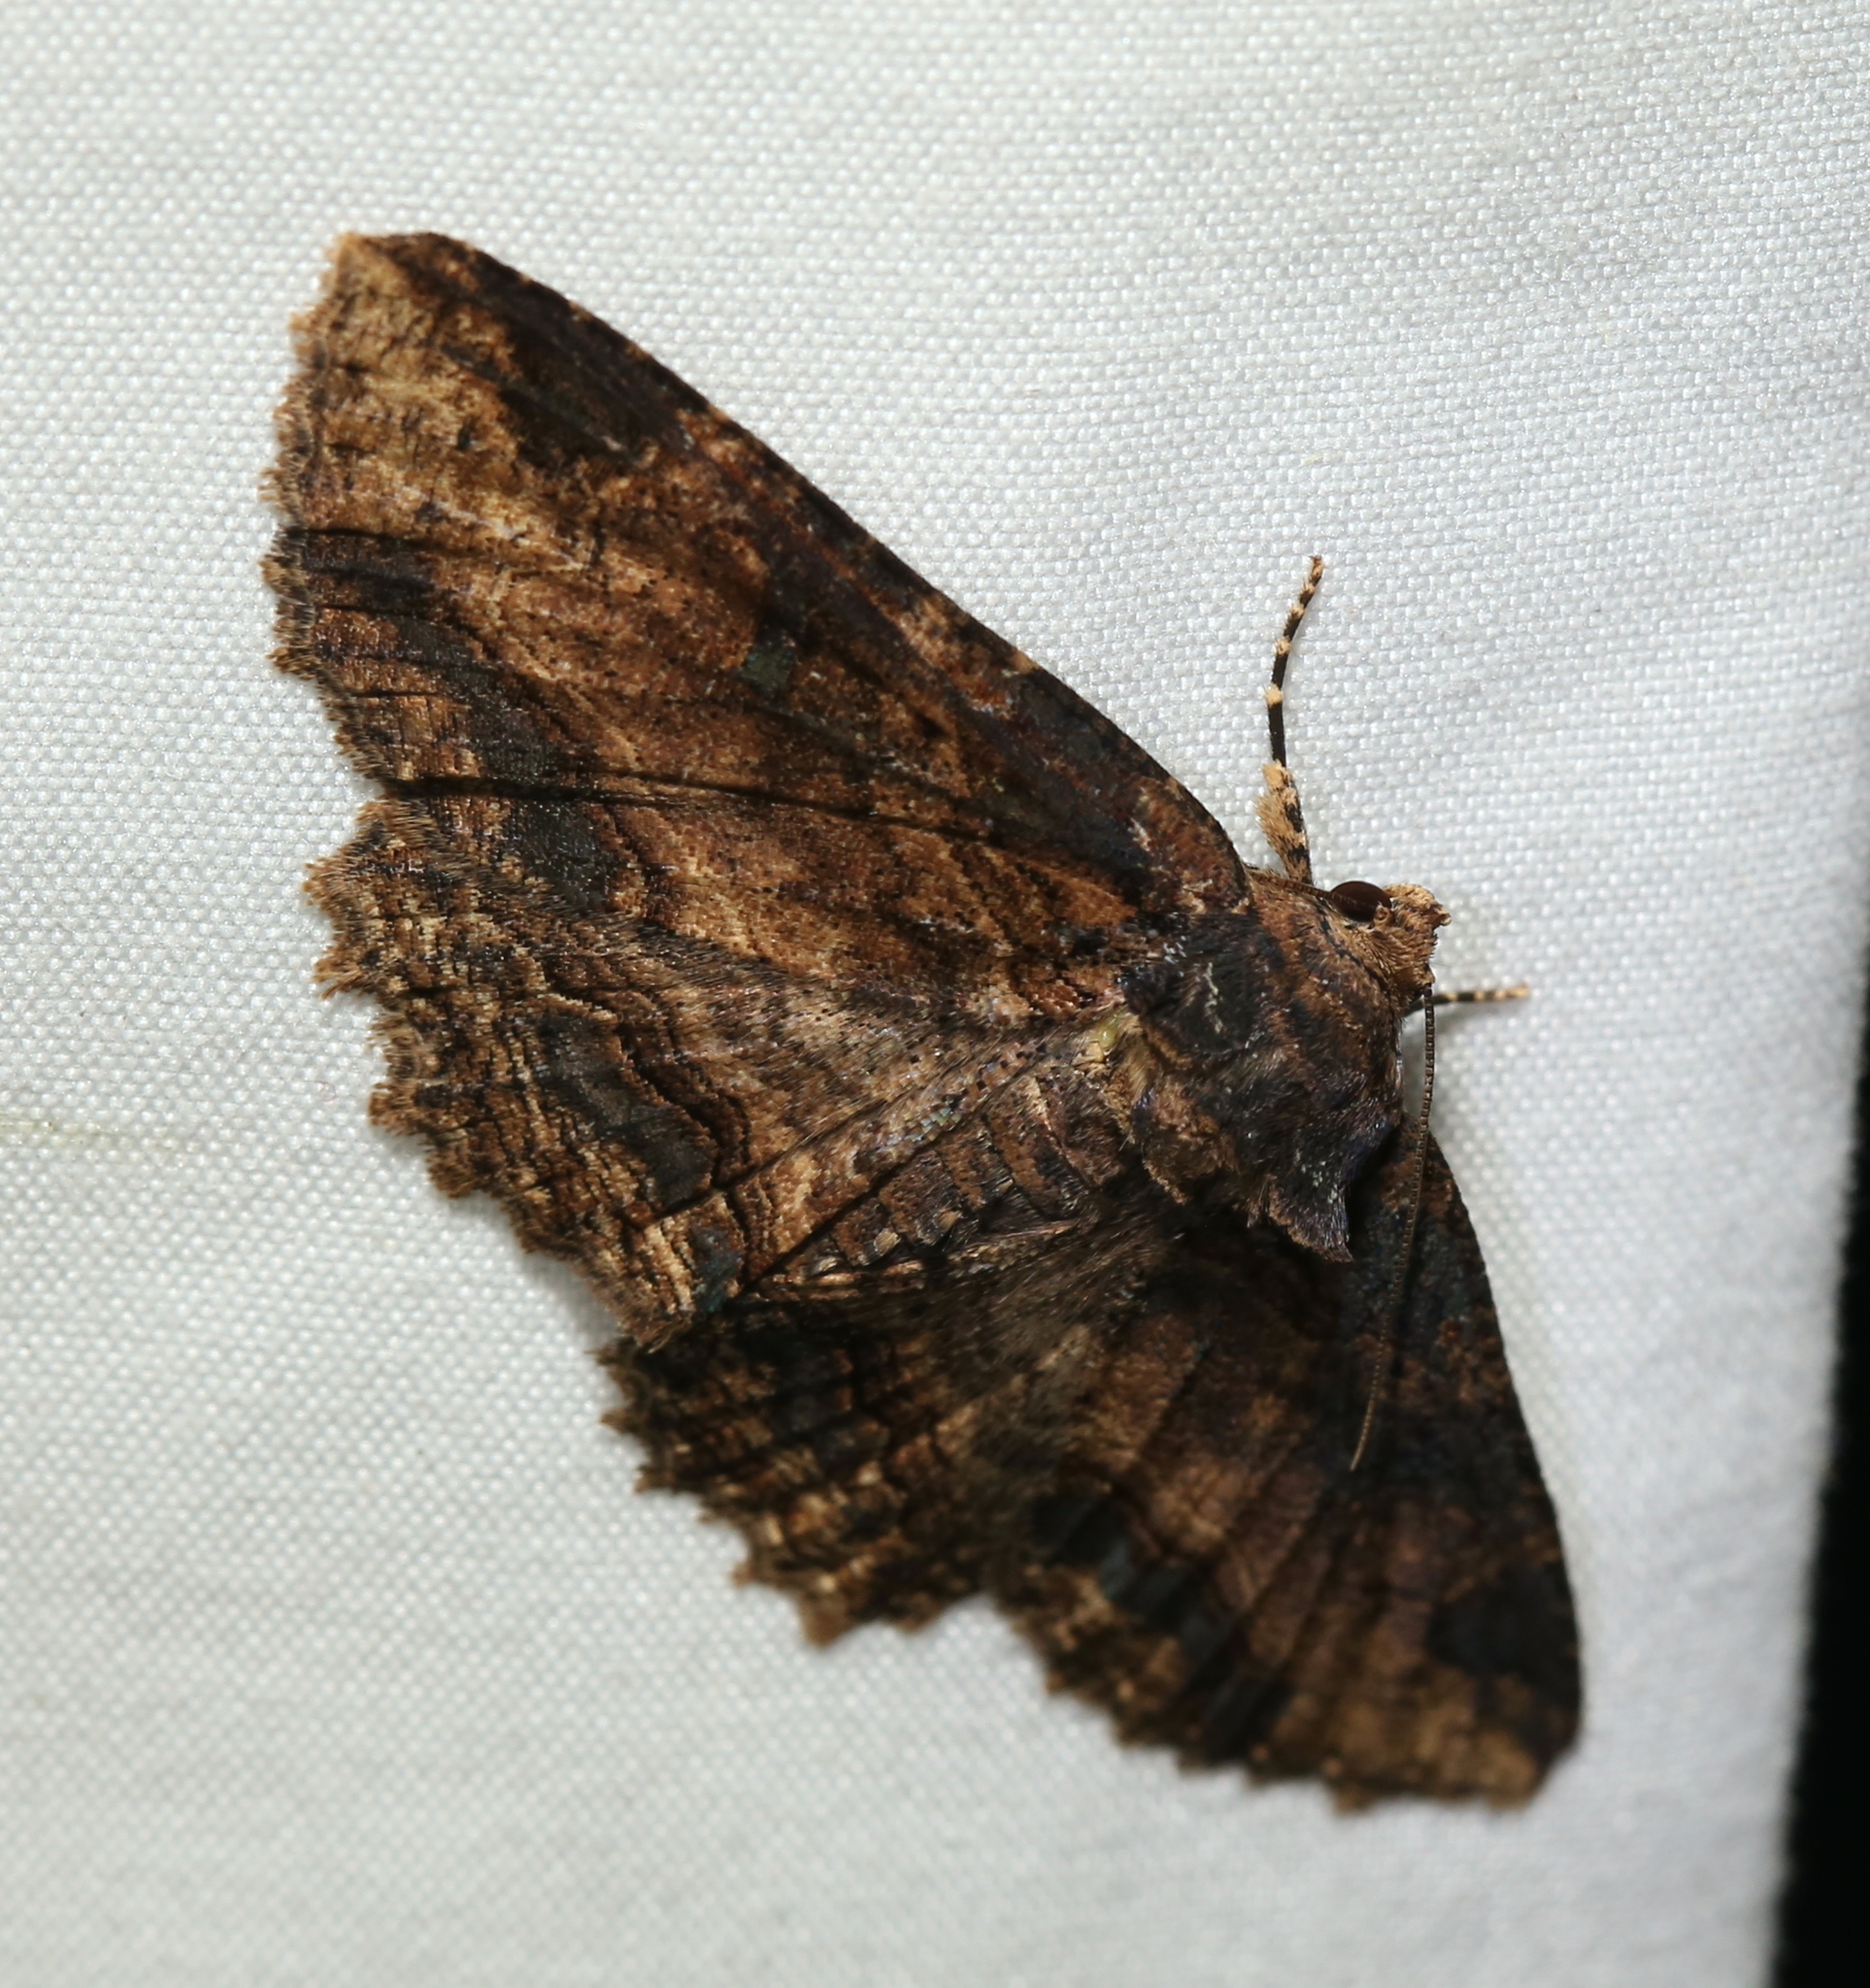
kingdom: Animalia
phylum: Arthropoda
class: Insecta
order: Lepidoptera
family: Erebidae
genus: Zale
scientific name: Zale minerea
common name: Colorful zale moth
